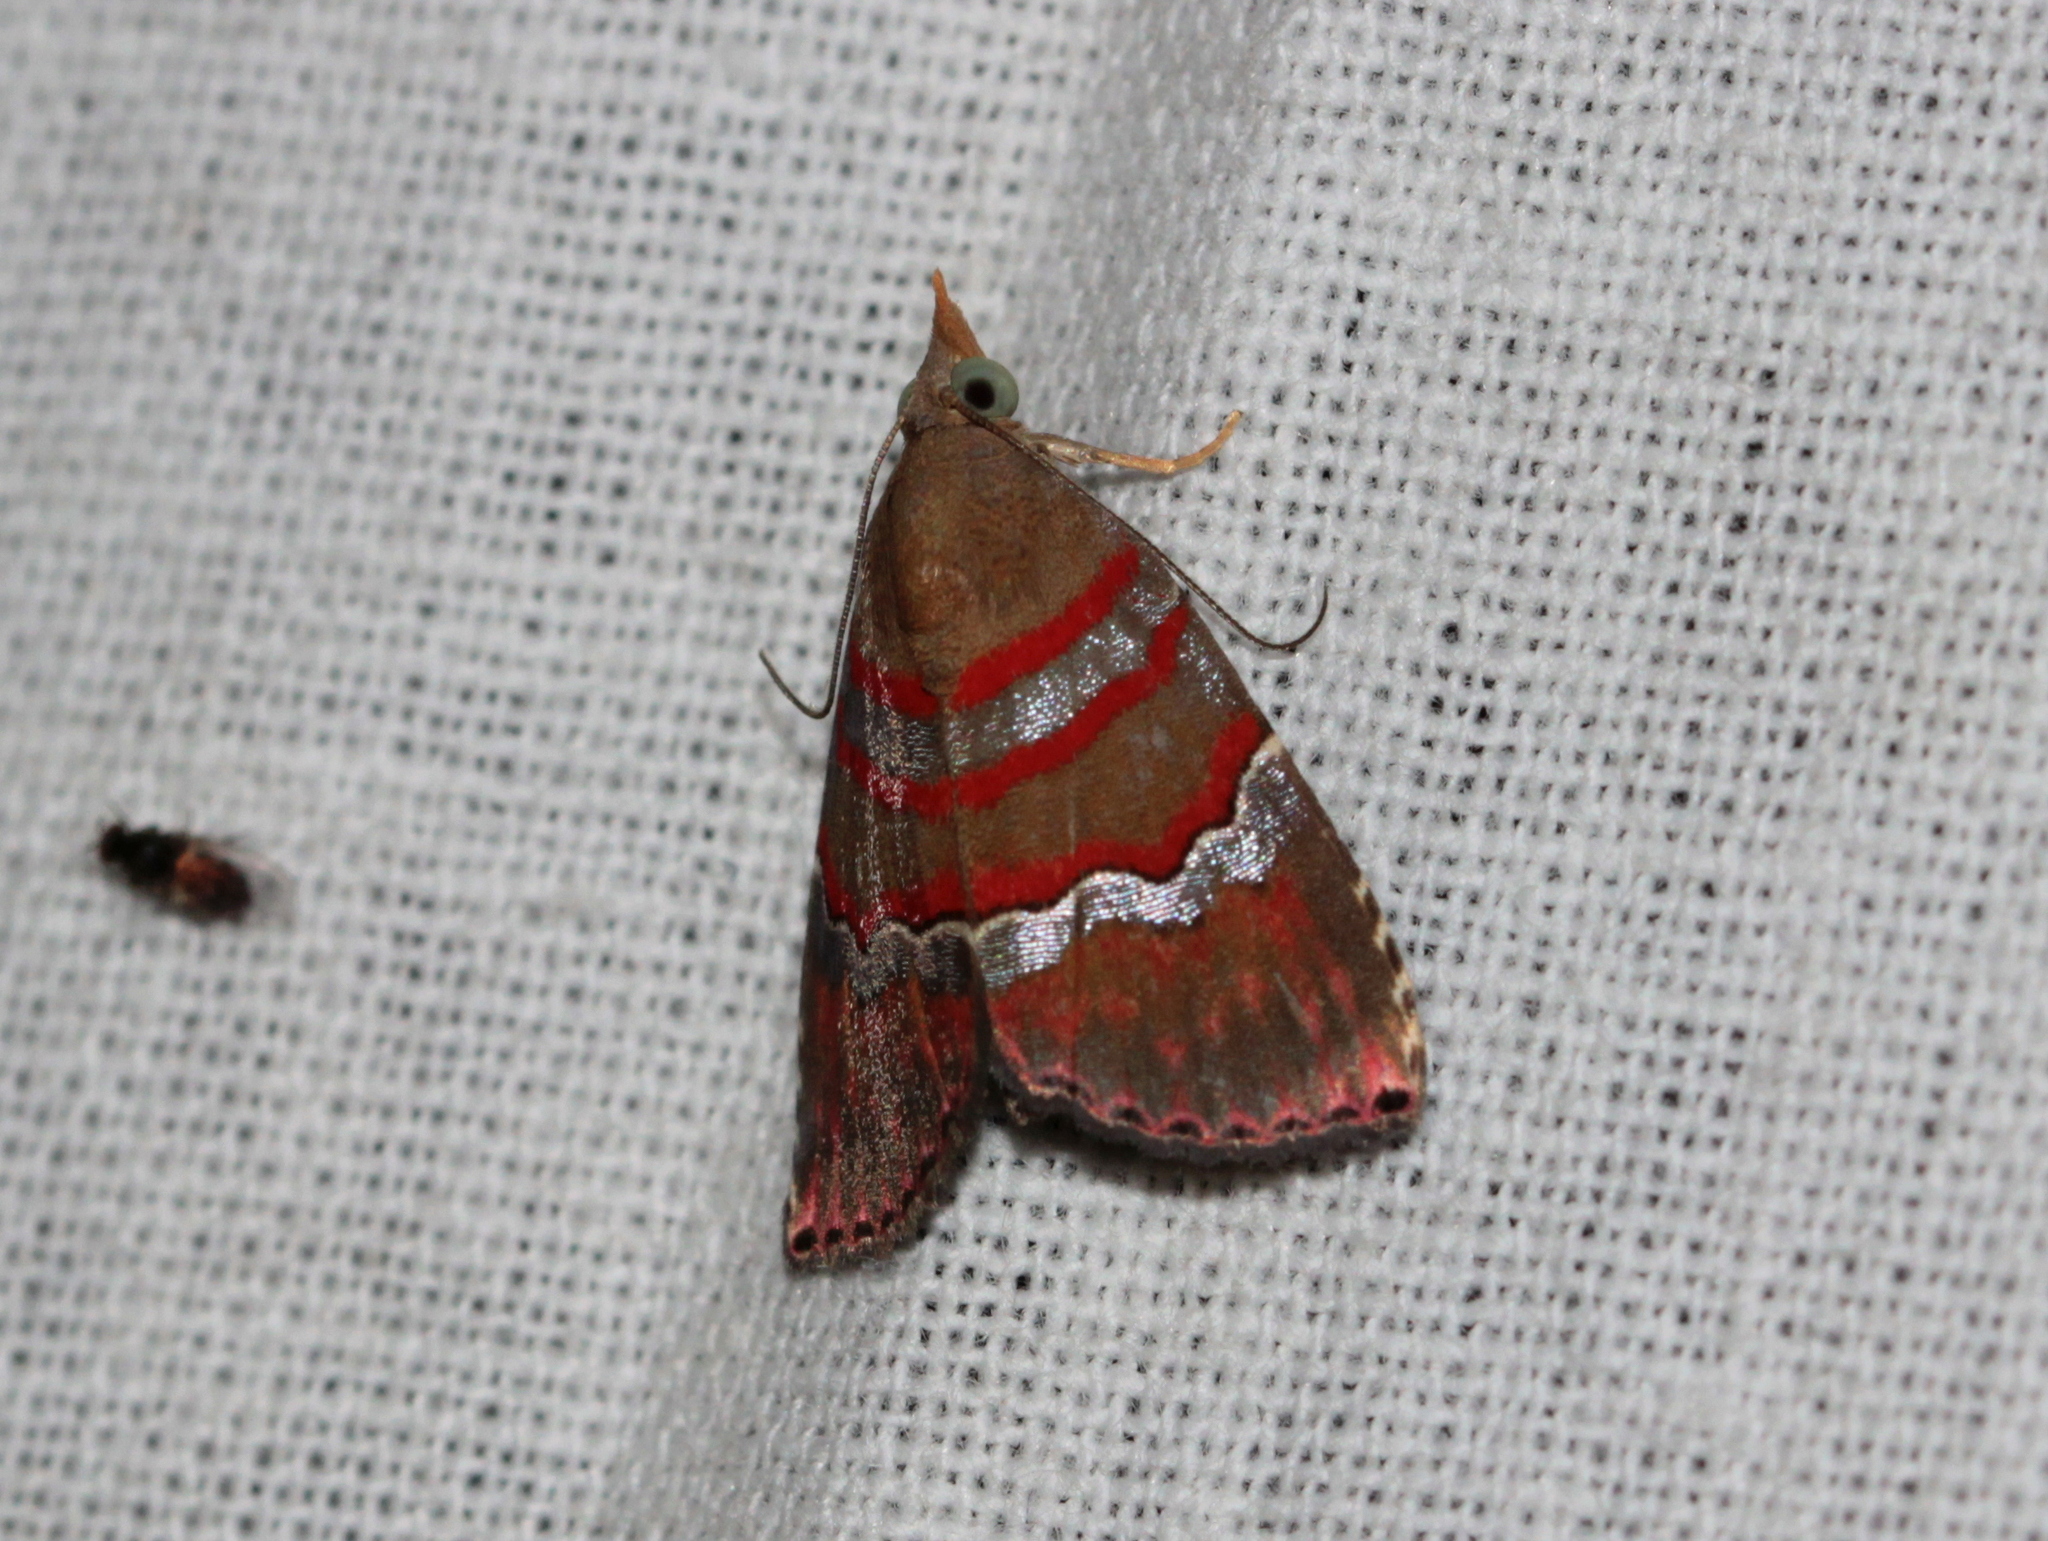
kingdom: Animalia
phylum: Arthropoda
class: Insecta
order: Lepidoptera
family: Erebidae
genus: Nolasena
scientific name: Nolasena ferrifervens
